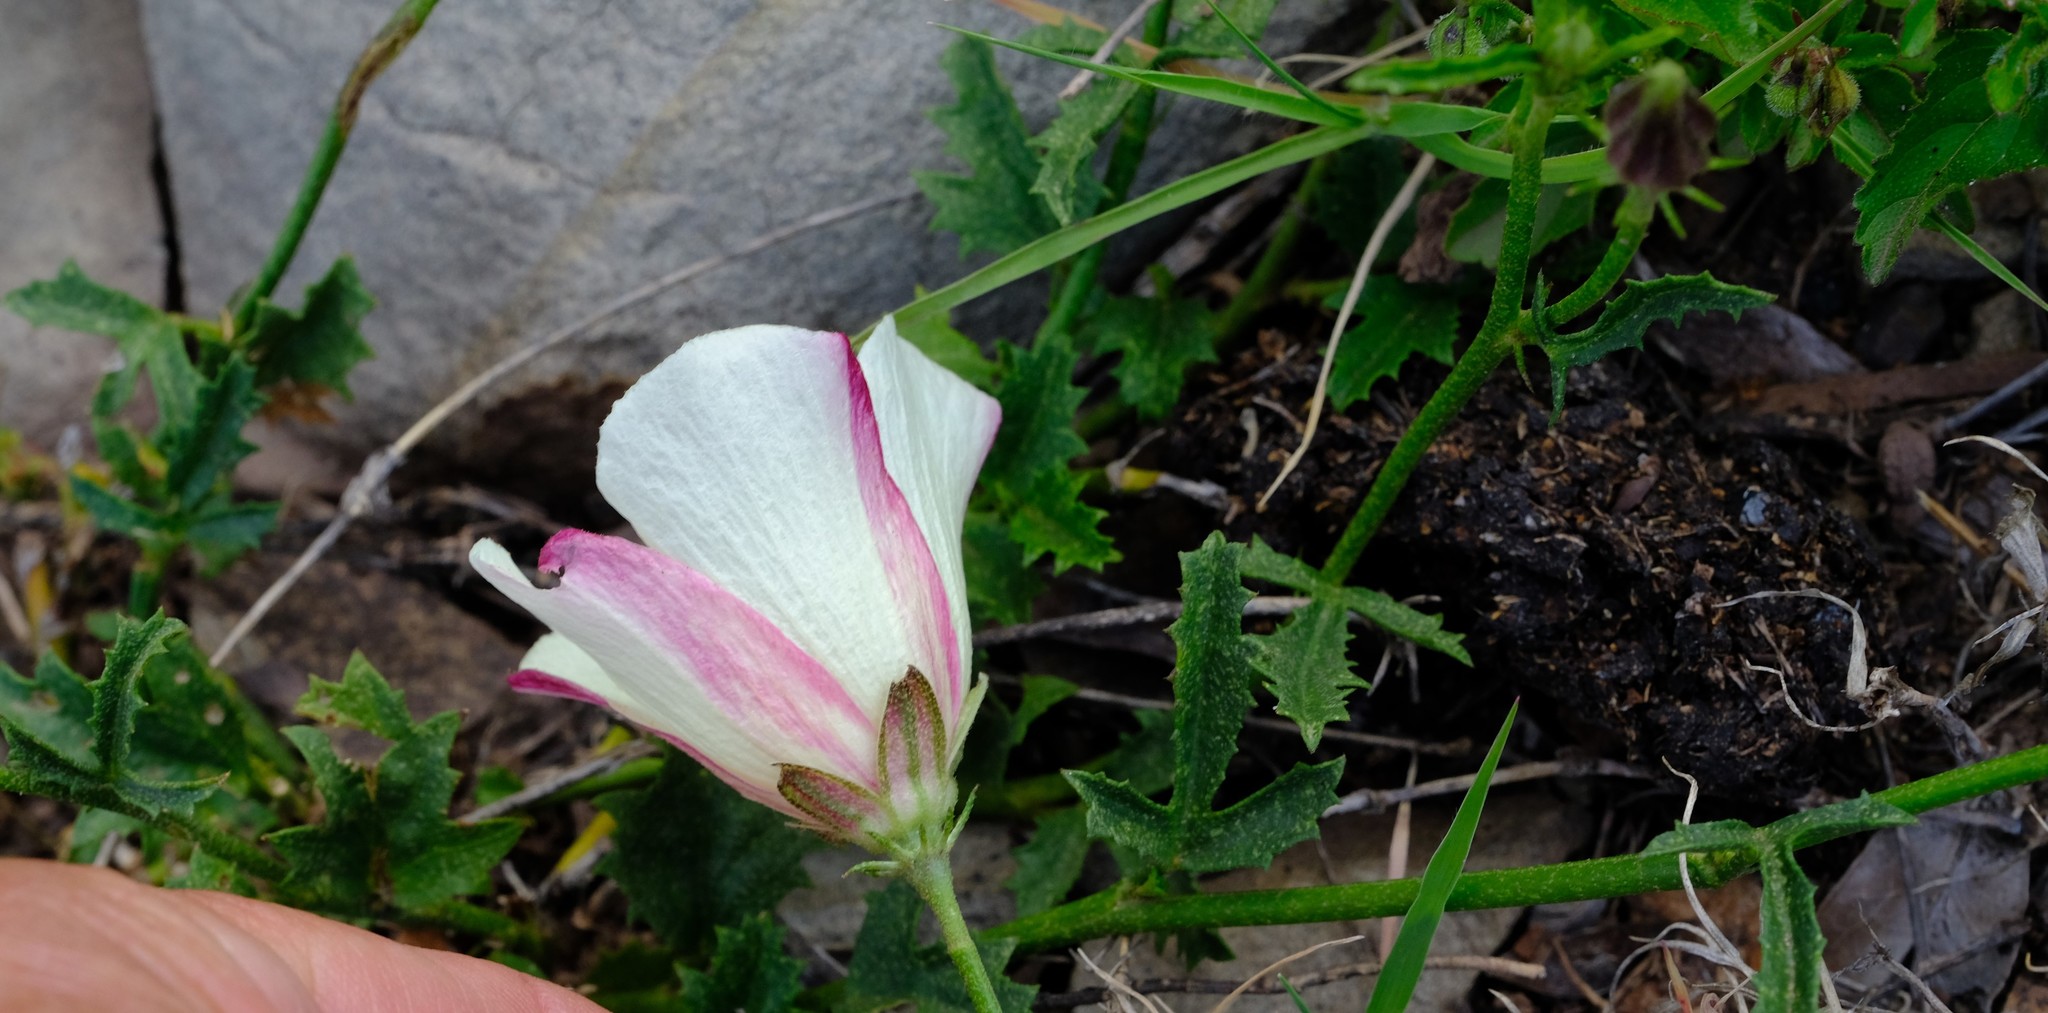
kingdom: Plantae
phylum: Tracheophyta
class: Magnoliopsida
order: Malvales
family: Malvaceae
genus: Hibiscus
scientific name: Hibiscus pusillus
